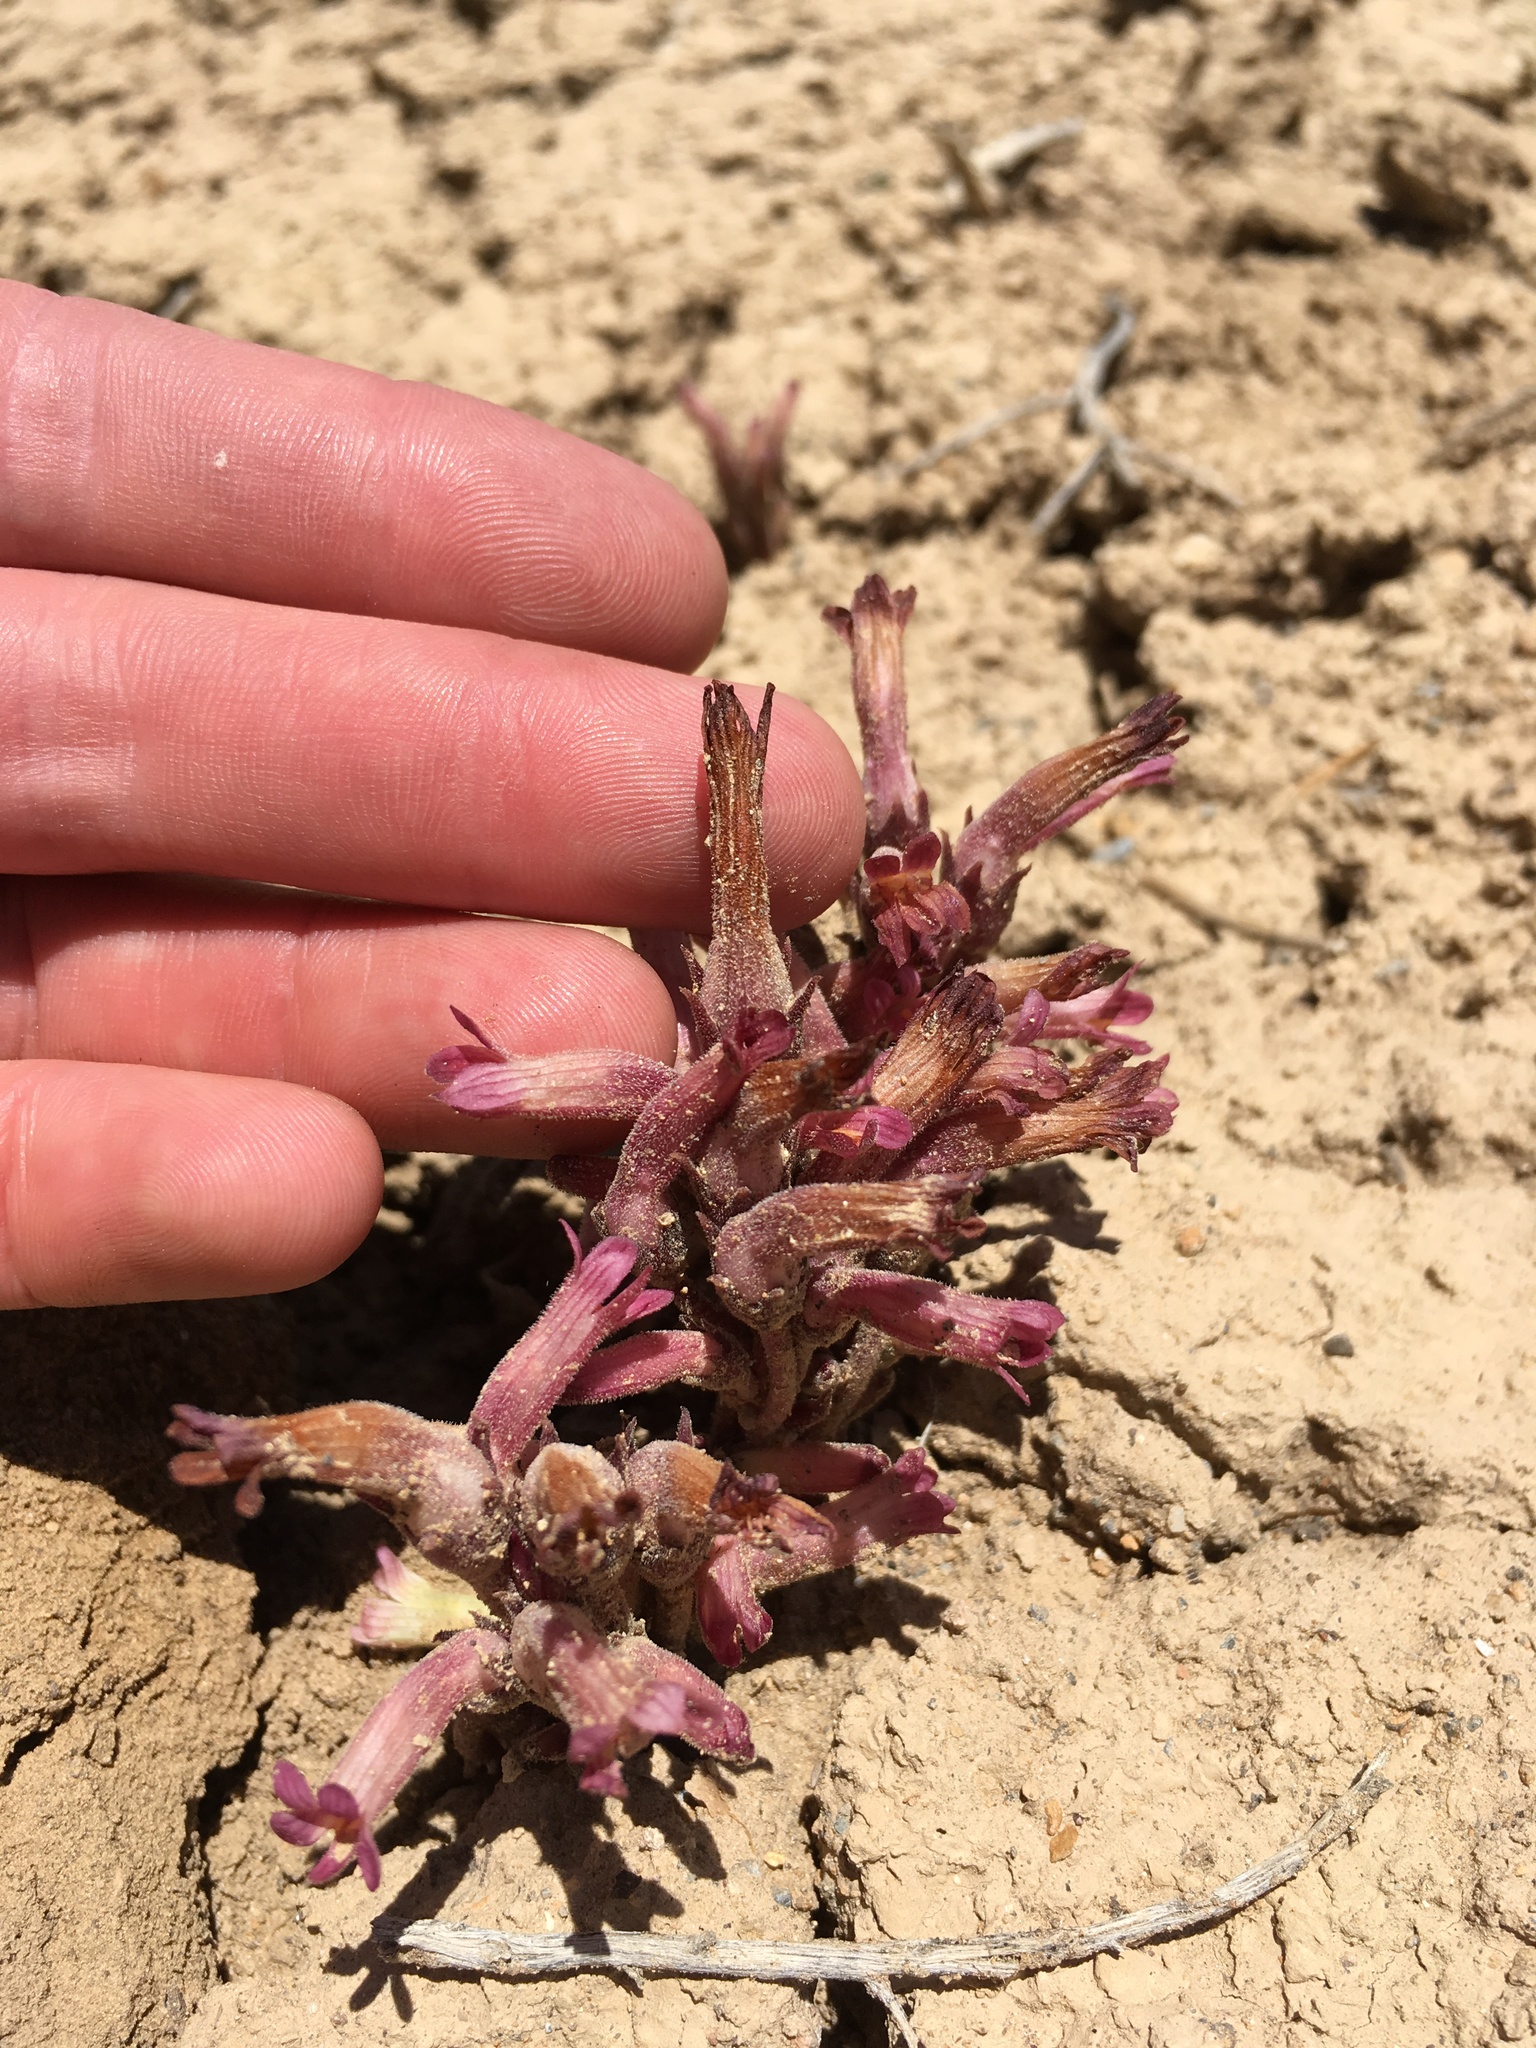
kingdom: Plantae
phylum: Tracheophyta
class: Magnoliopsida
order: Lamiales
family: Orobanchaceae
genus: Aphyllon
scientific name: Aphyllon fasciculatum
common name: Clustered broomrape
